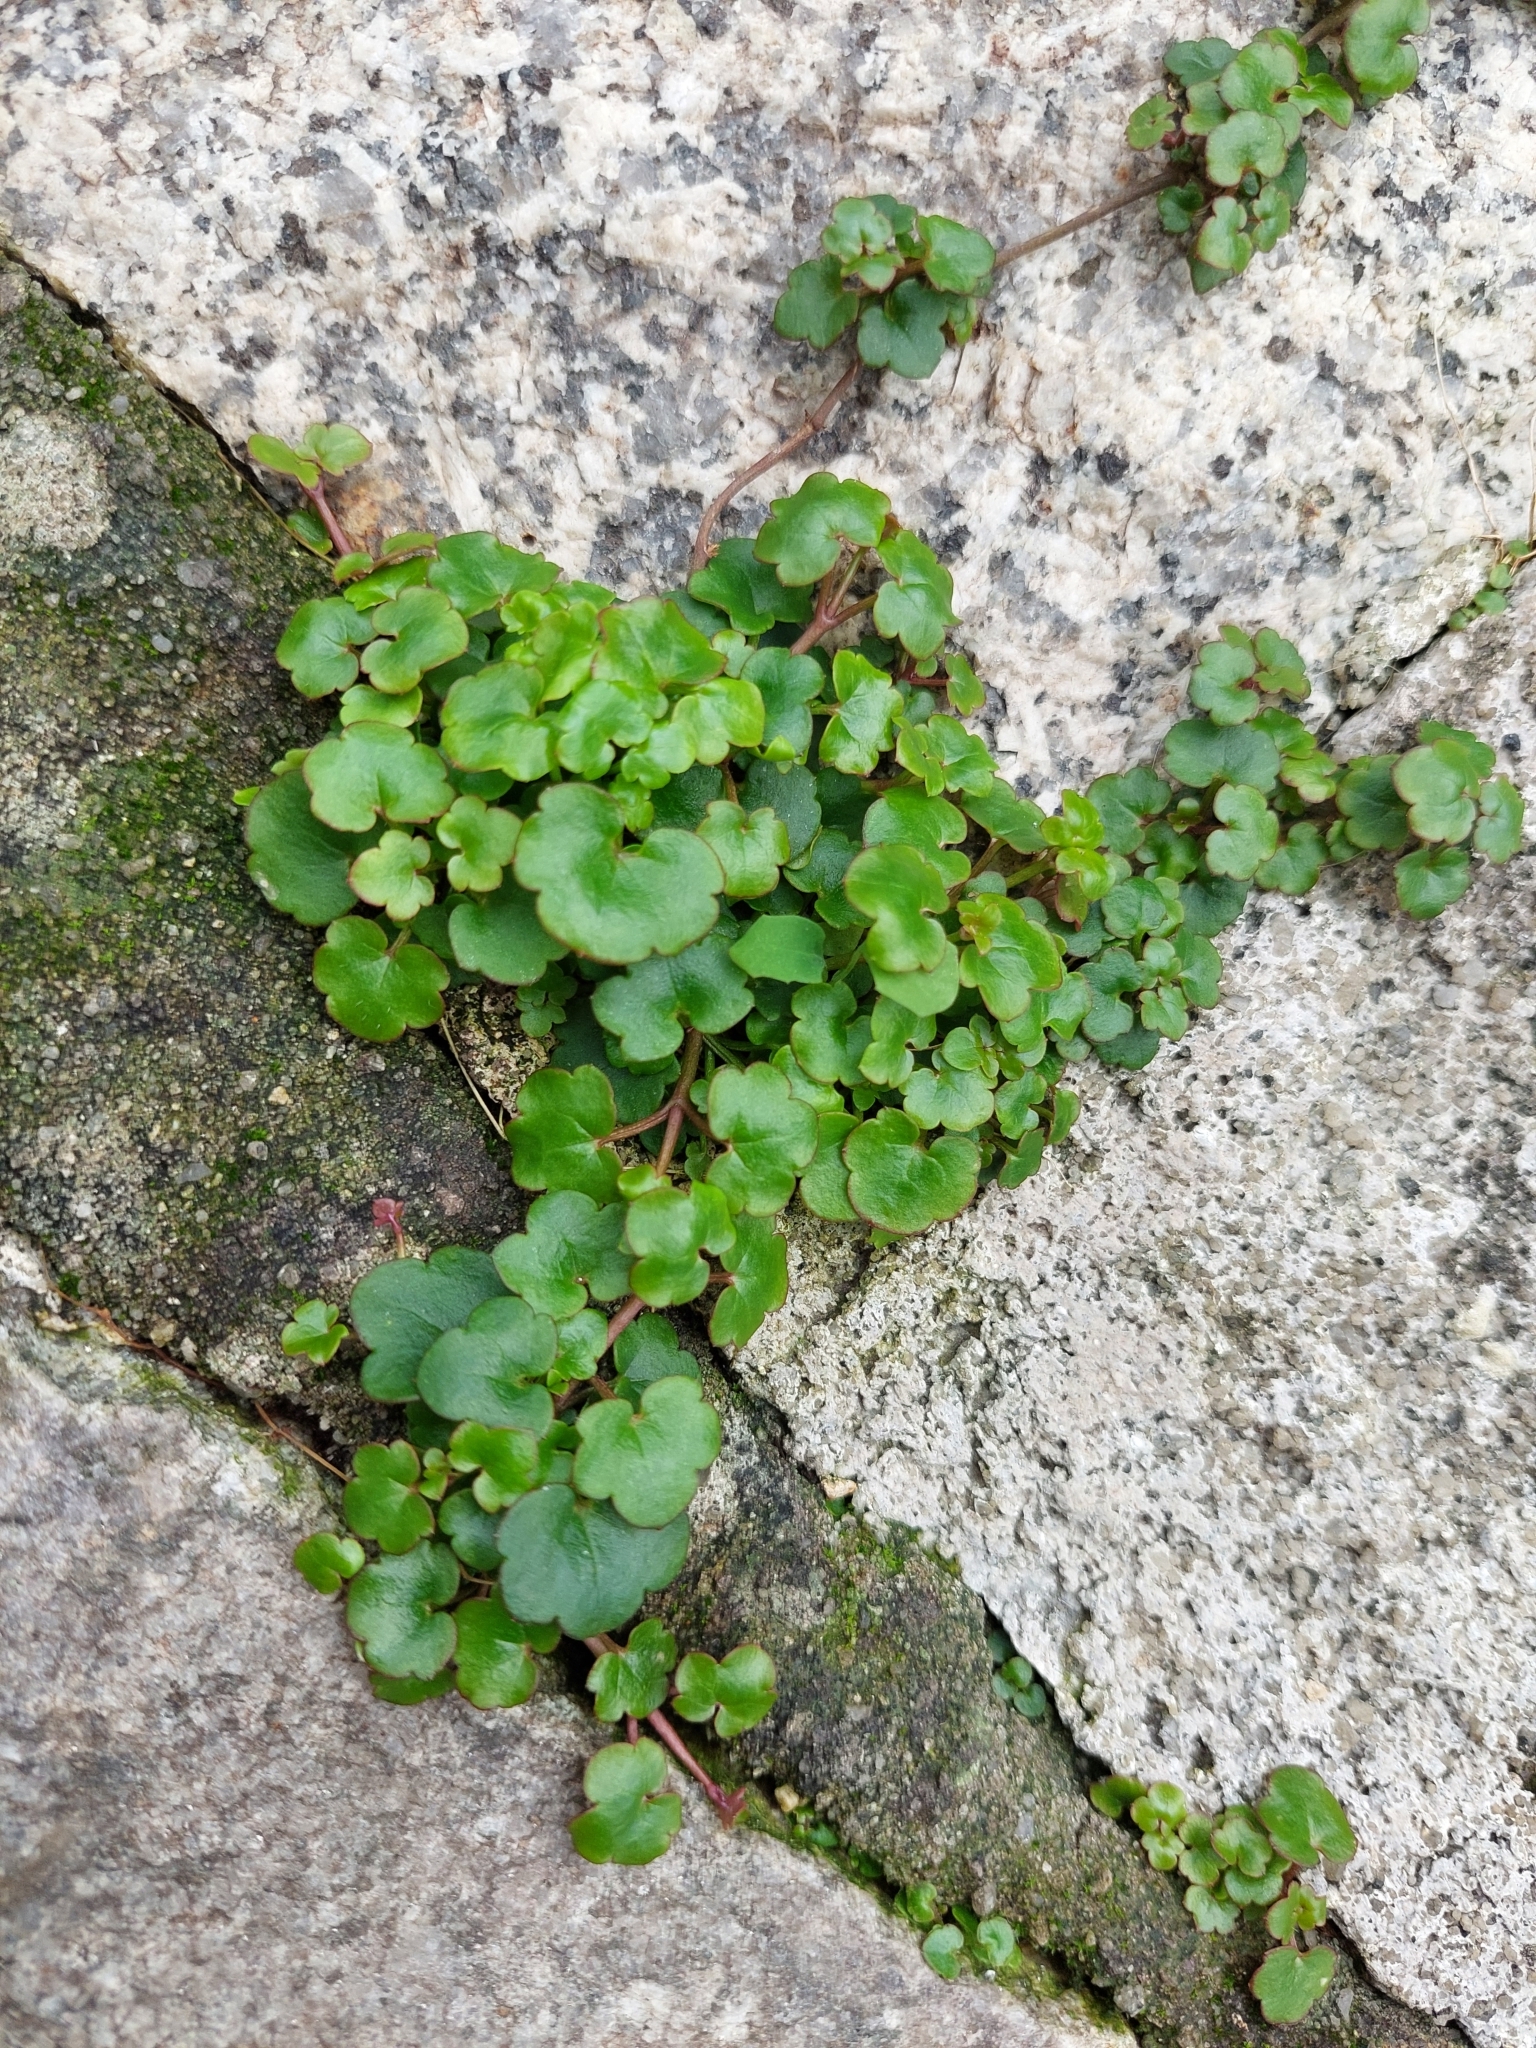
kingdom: Plantae
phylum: Tracheophyta
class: Magnoliopsida
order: Lamiales
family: Plantaginaceae
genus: Cymbalaria
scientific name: Cymbalaria muralis
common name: Ivy-leaved toadflax
